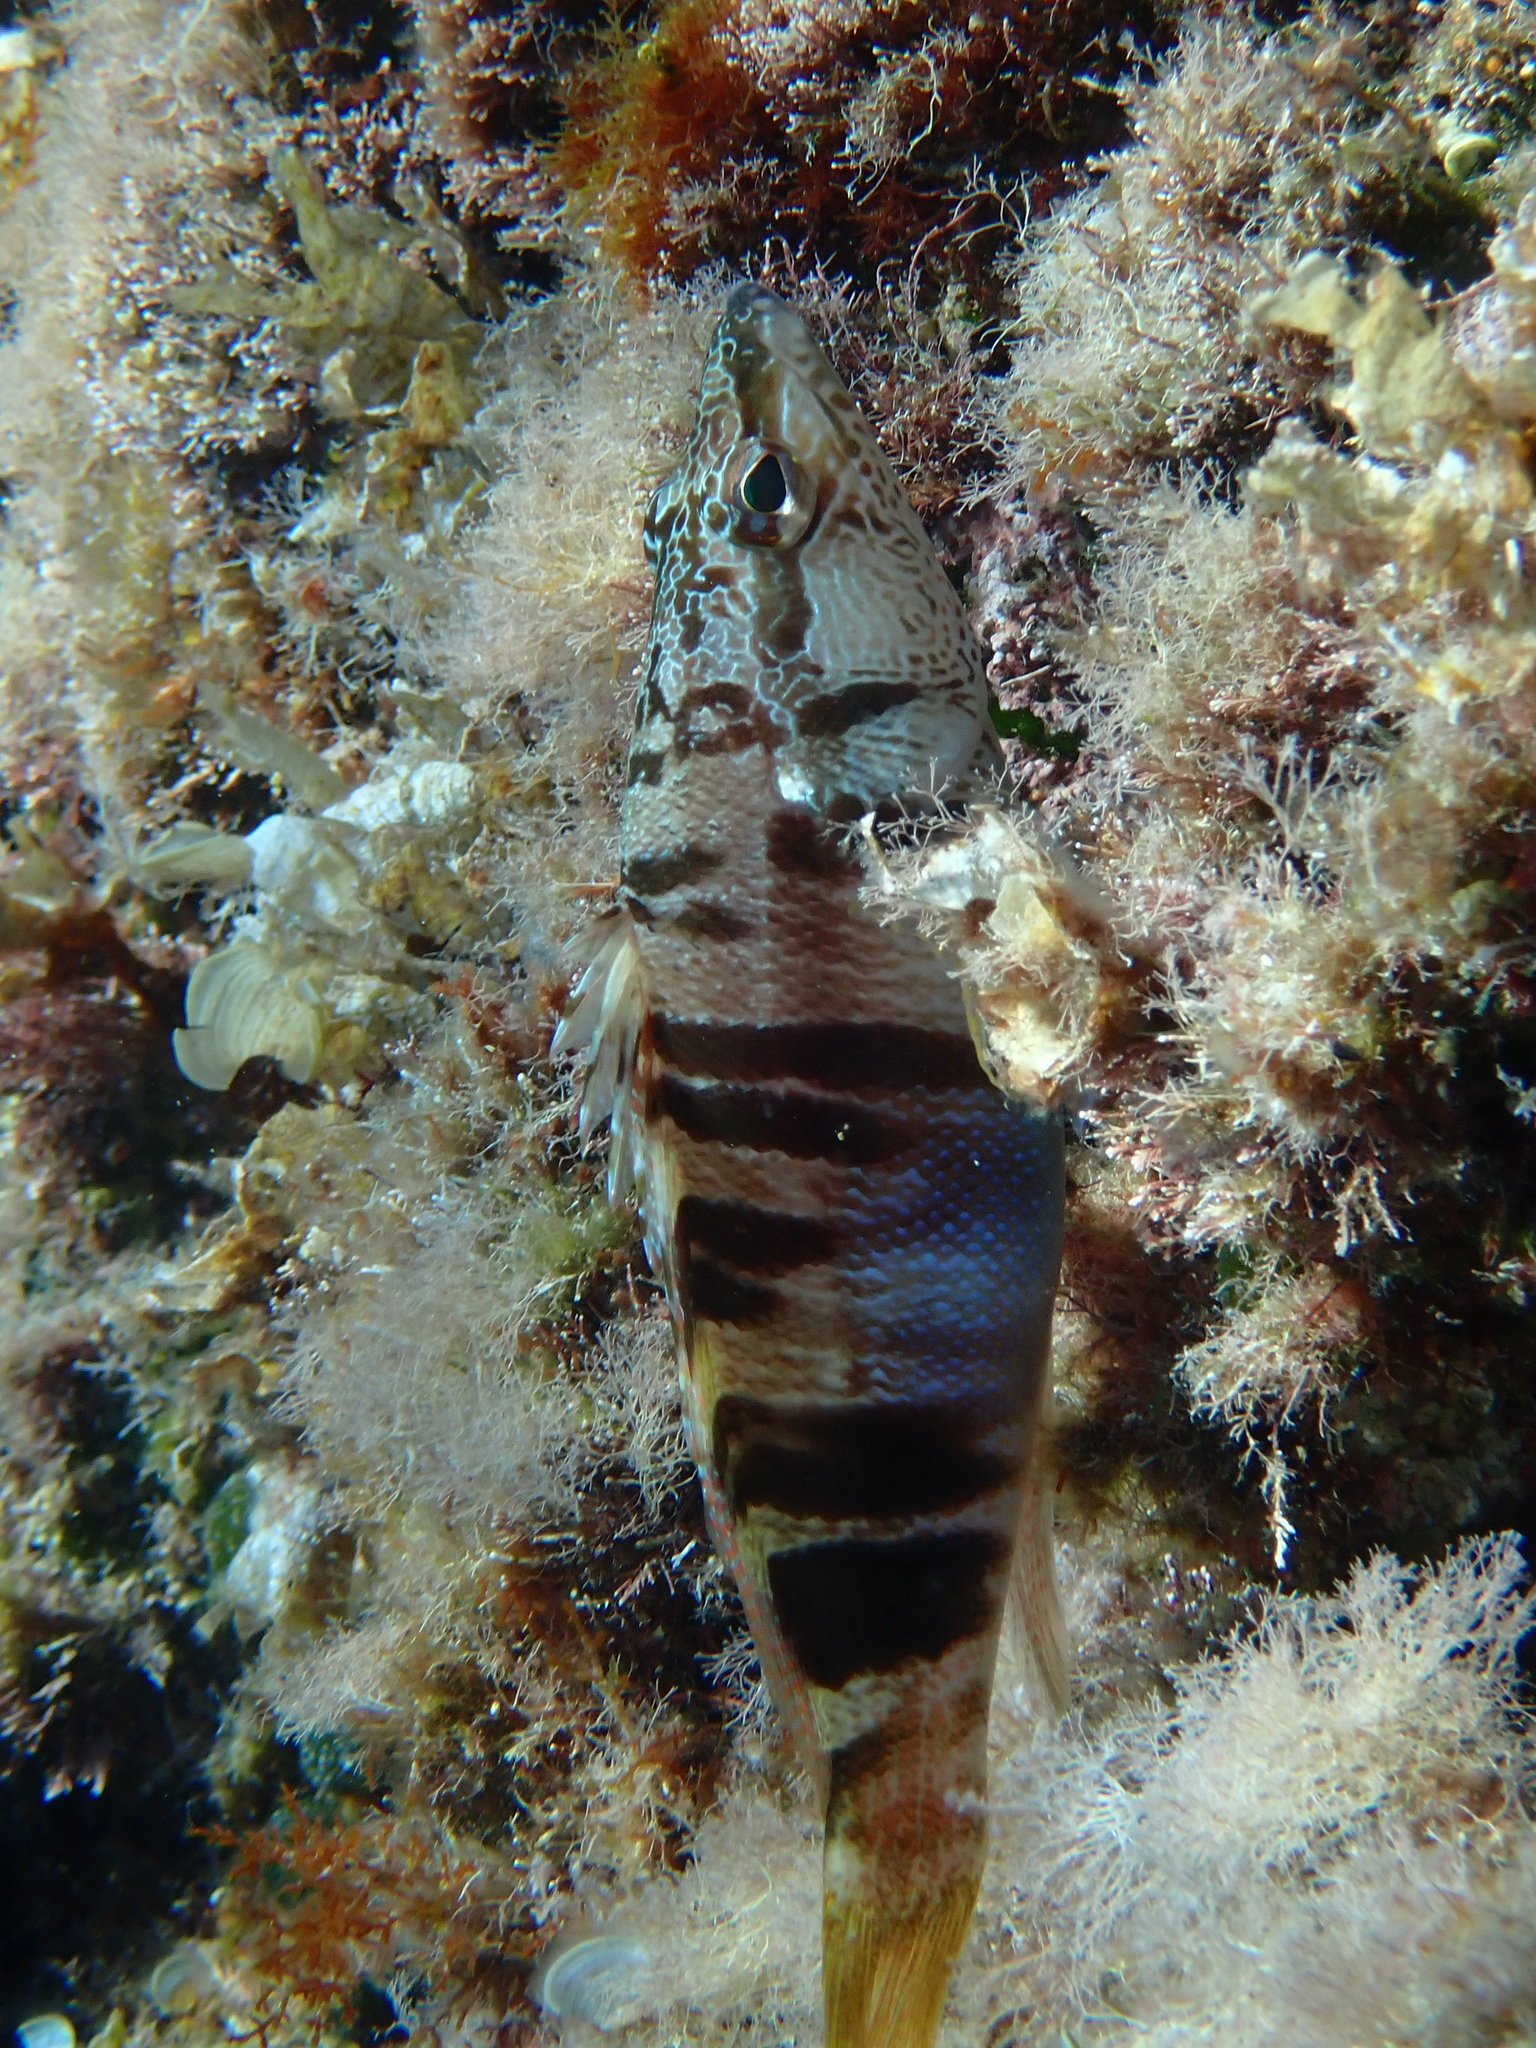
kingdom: Animalia
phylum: Chordata
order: Perciformes
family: Serranidae
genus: Serranus
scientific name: Serranus scriba
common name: Painted comber
